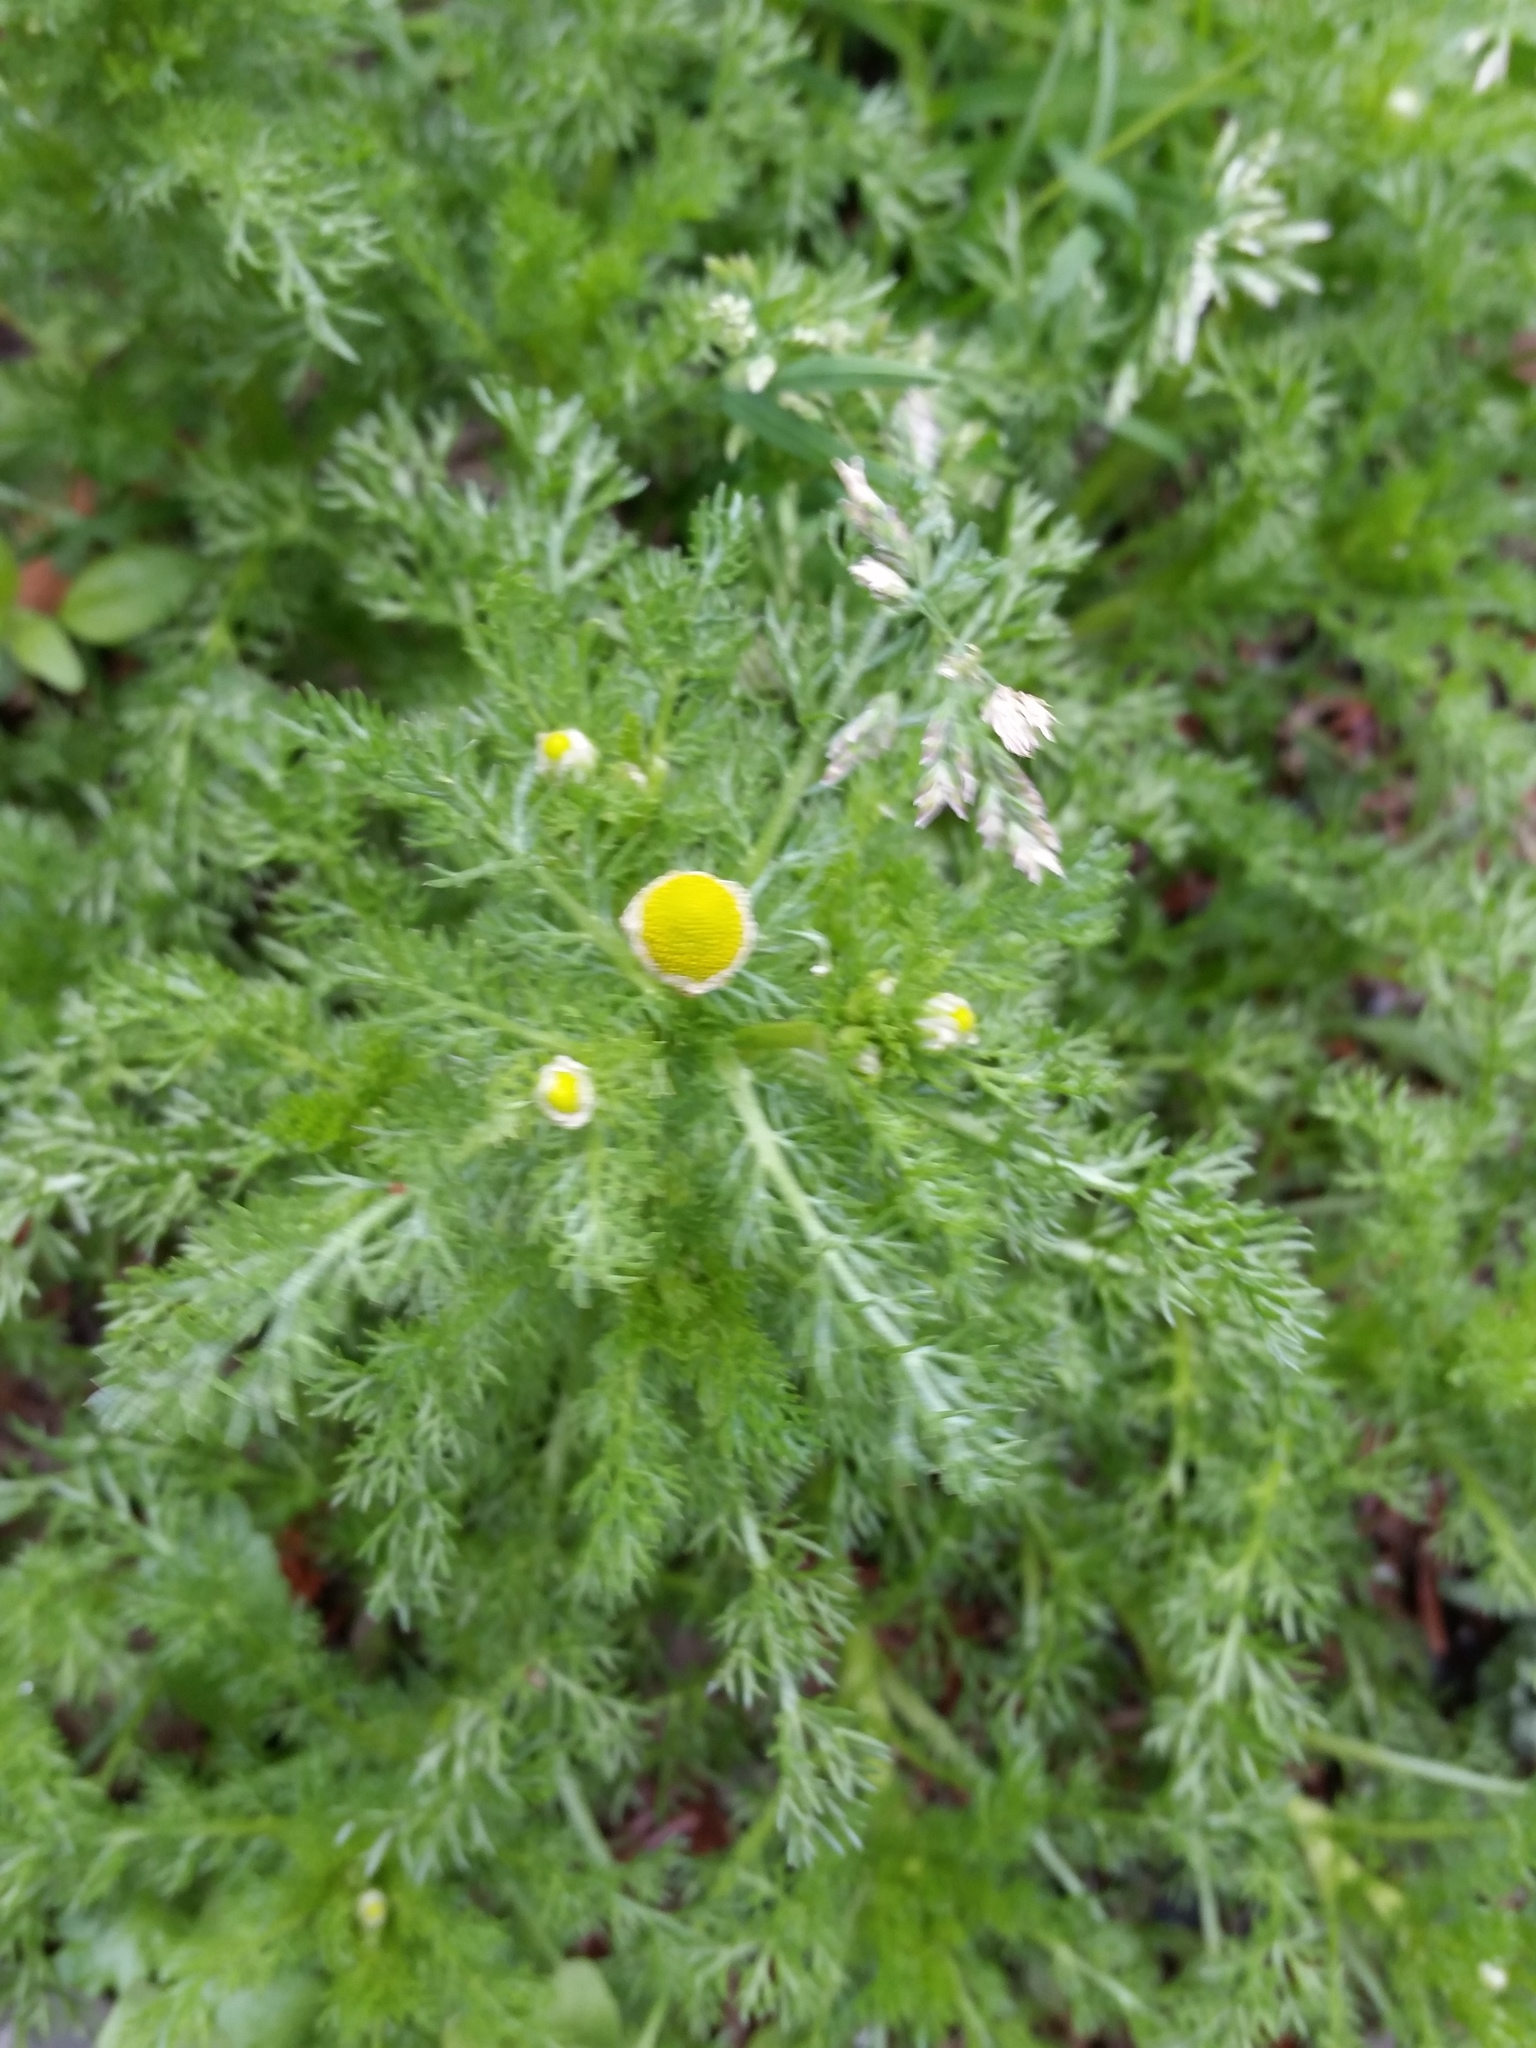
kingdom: Plantae
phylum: Tracheophyta
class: Magnoliopsida
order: Asterales
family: Asteraceae
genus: Matricaria
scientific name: Matricaria discoidea
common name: Disc mayweed
